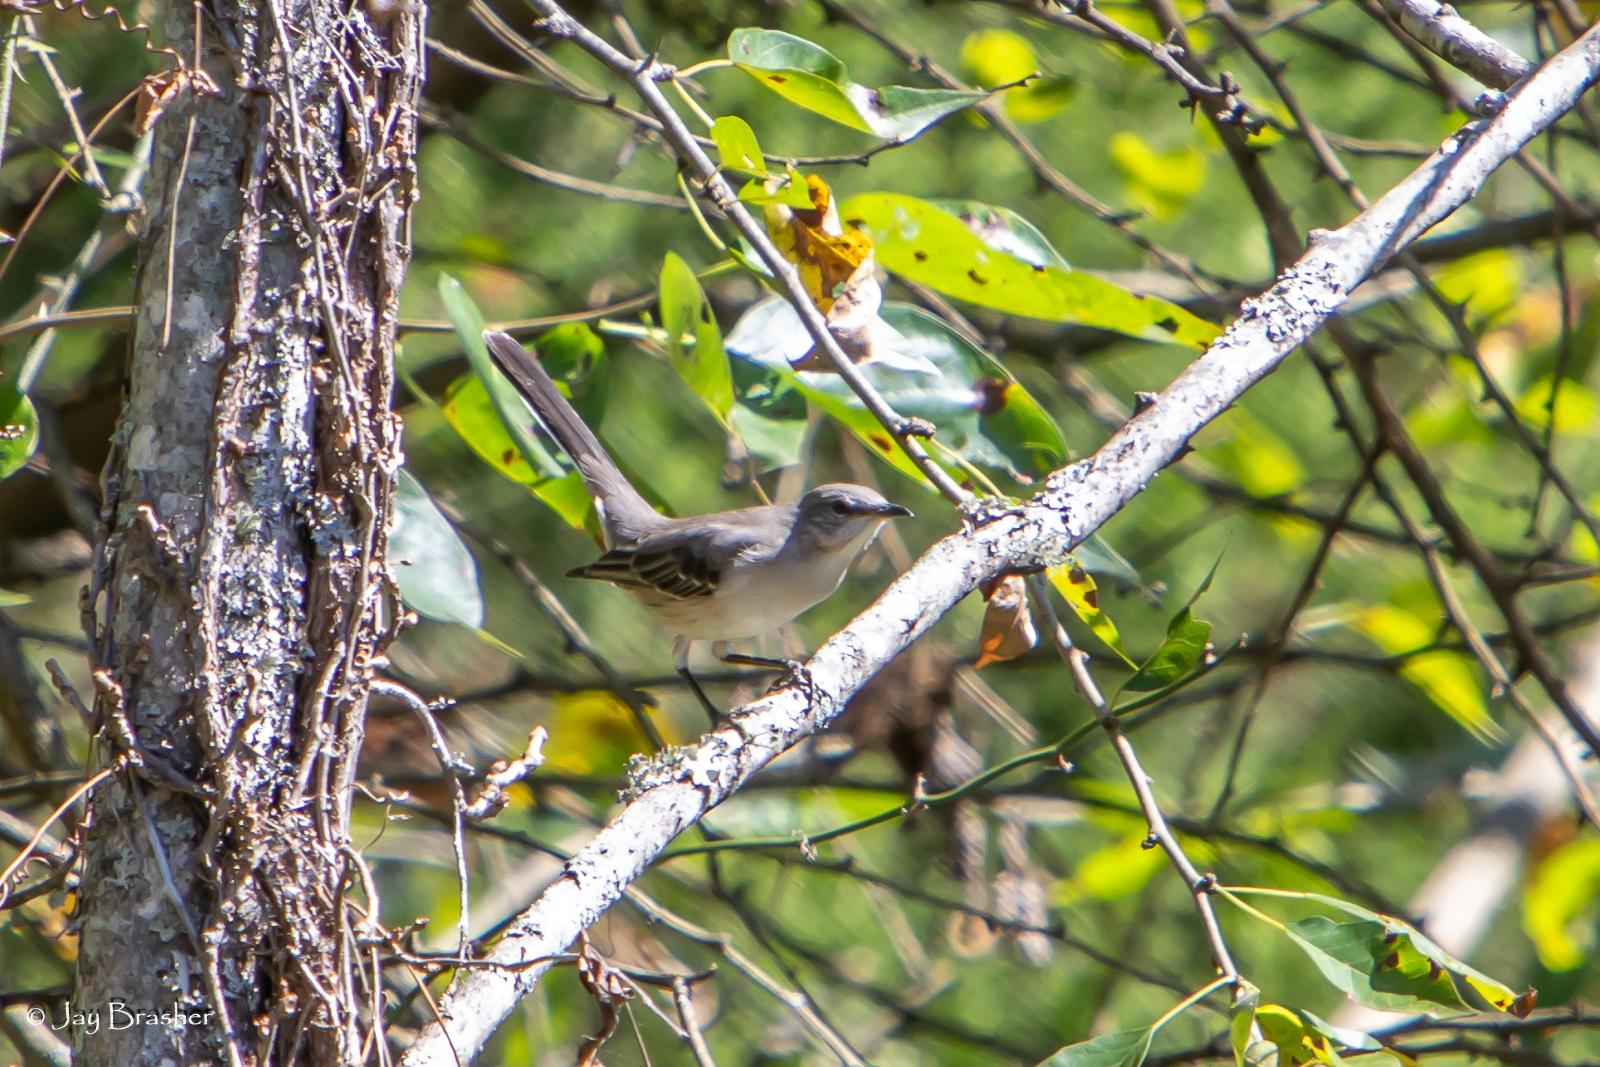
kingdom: Animalia
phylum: Chordata
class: Aves
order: Passeriformes
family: Mimidae
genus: Mimus
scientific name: Mimus polyglottos
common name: Northern mockingbird
